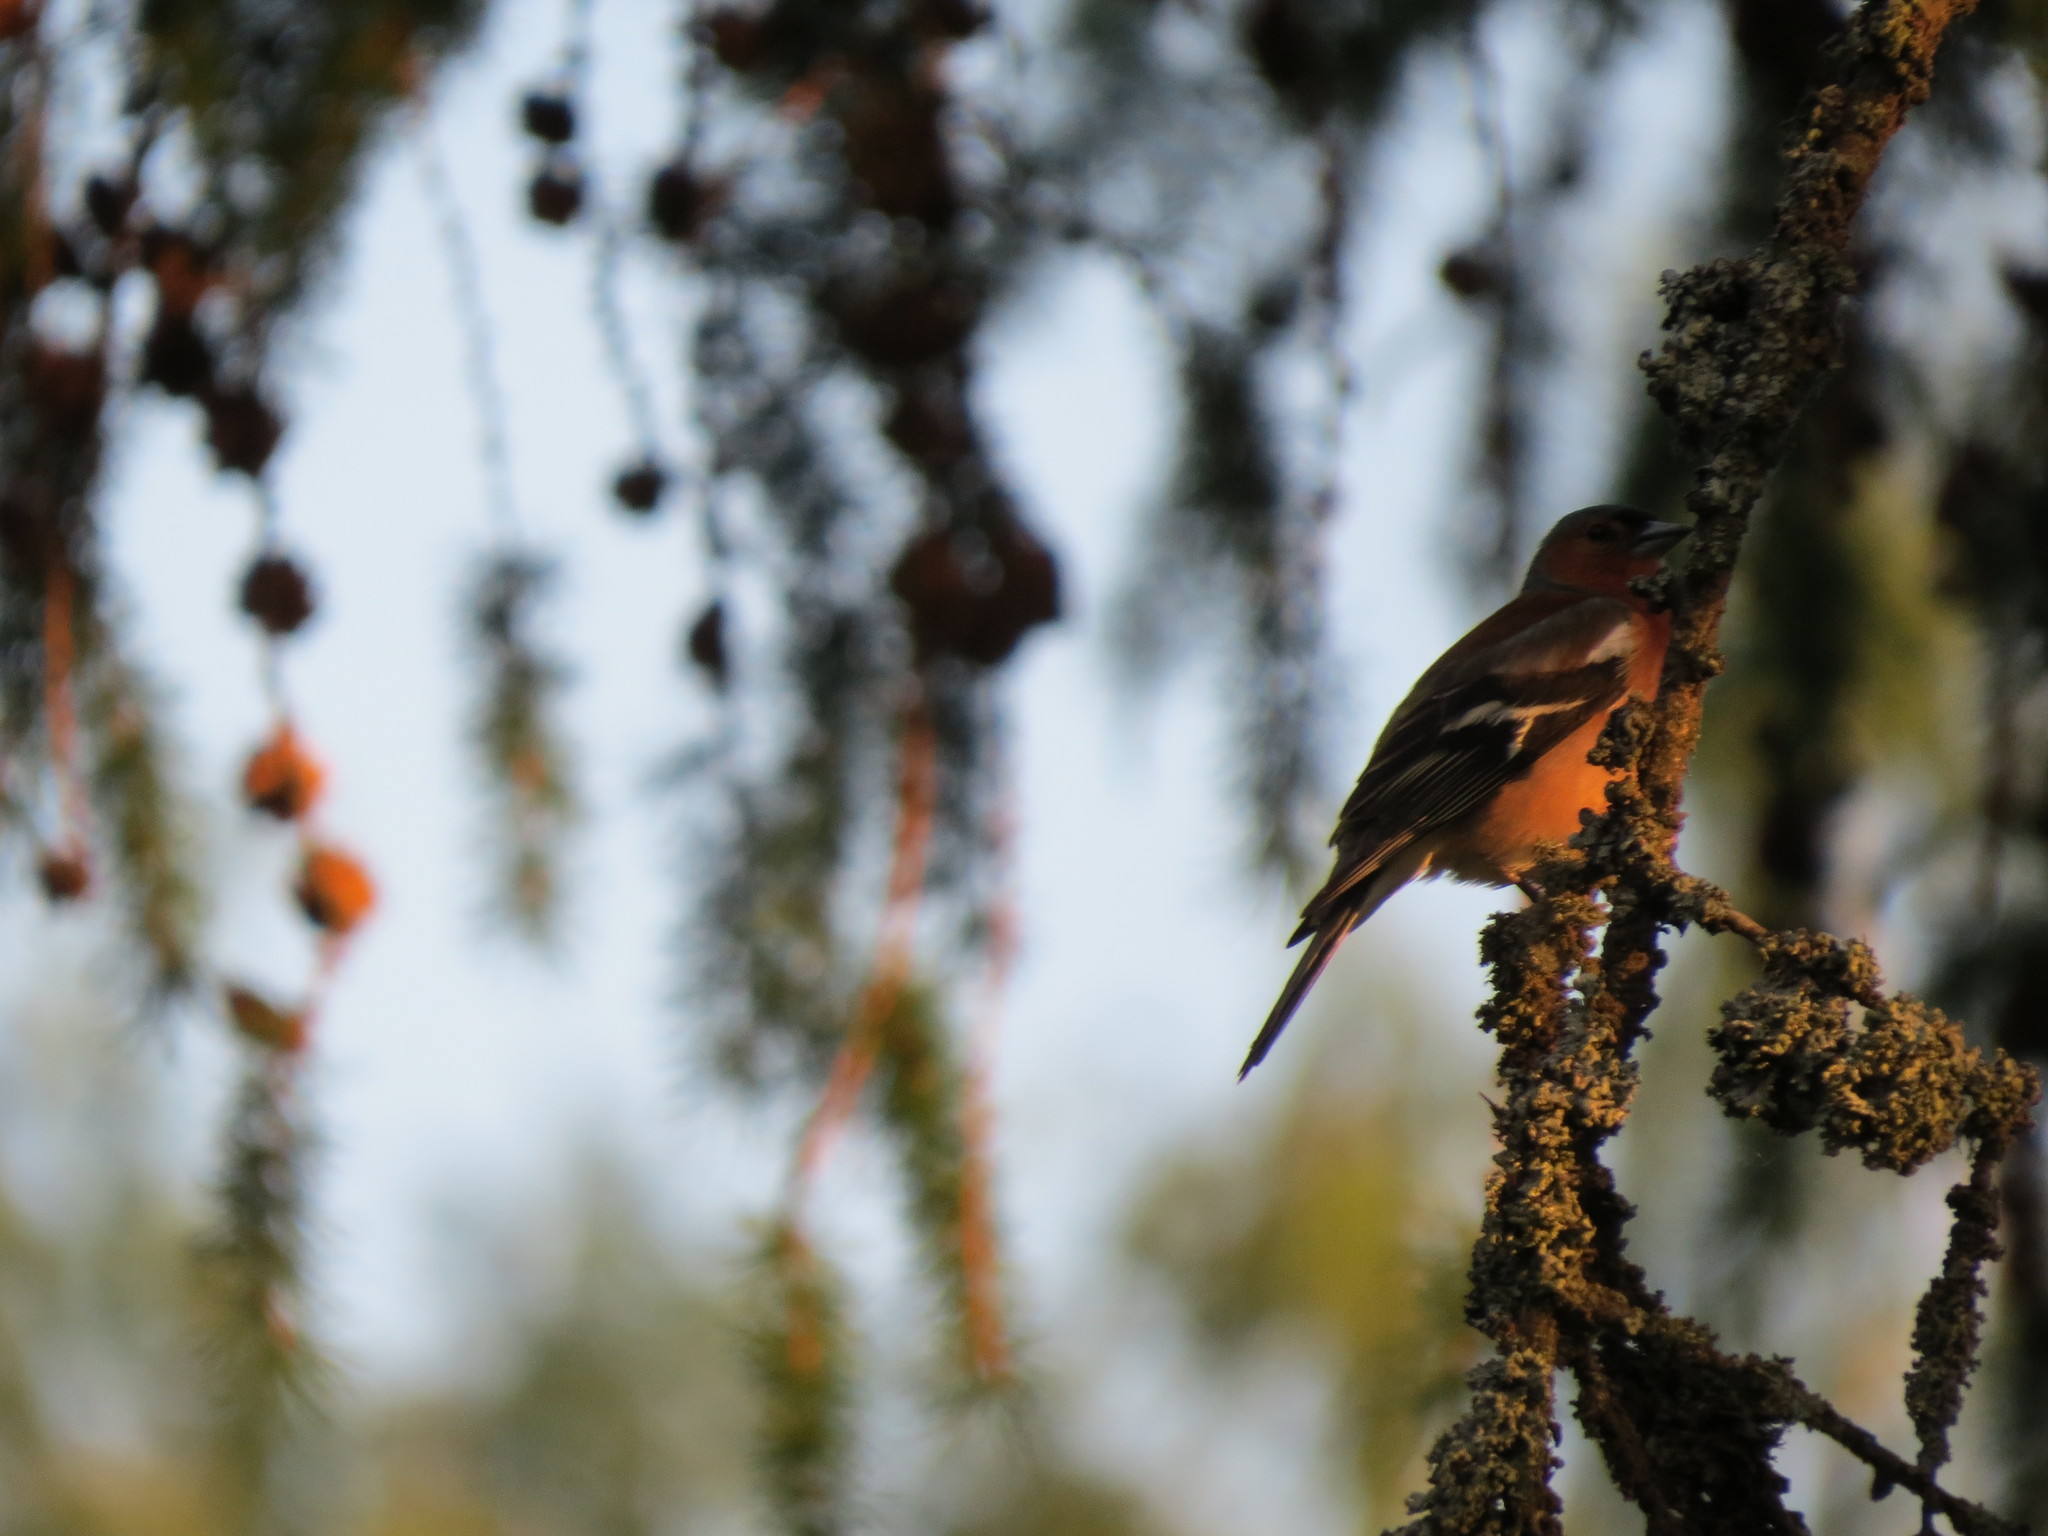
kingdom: Animalia
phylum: Chordata
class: Aves
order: Passeriformes
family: Fringillidae
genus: Fringilla
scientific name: Fringilla coelebs
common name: Common chaffinch
